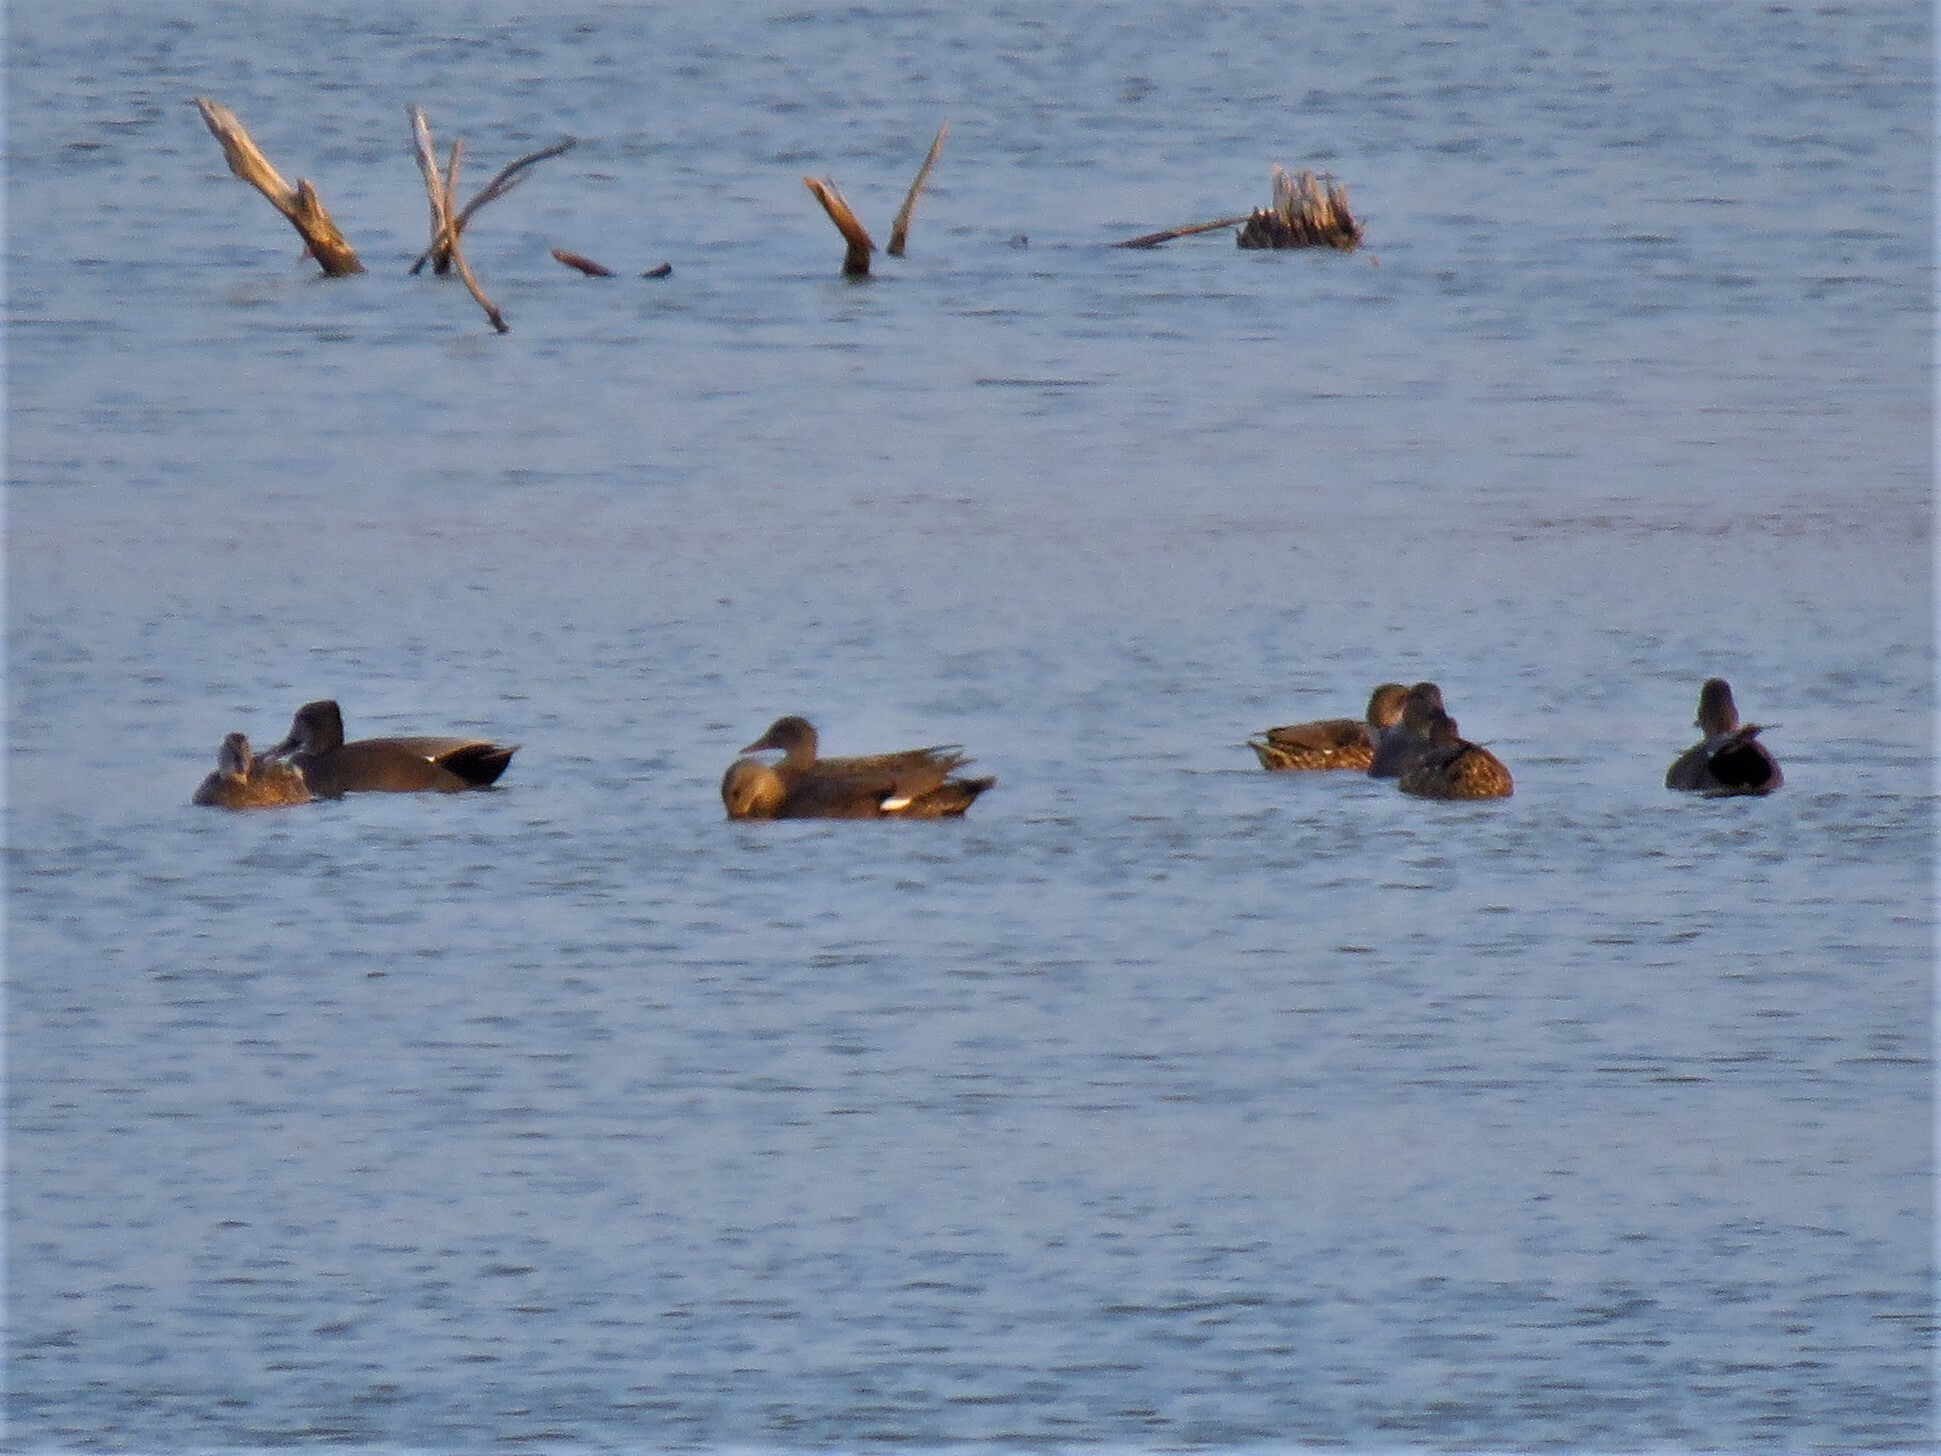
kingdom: Animalia
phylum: Chordata
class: Aves
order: Anseriformes
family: Anatidae
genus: Mareca
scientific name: Mareca strepera
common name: Gadwall
